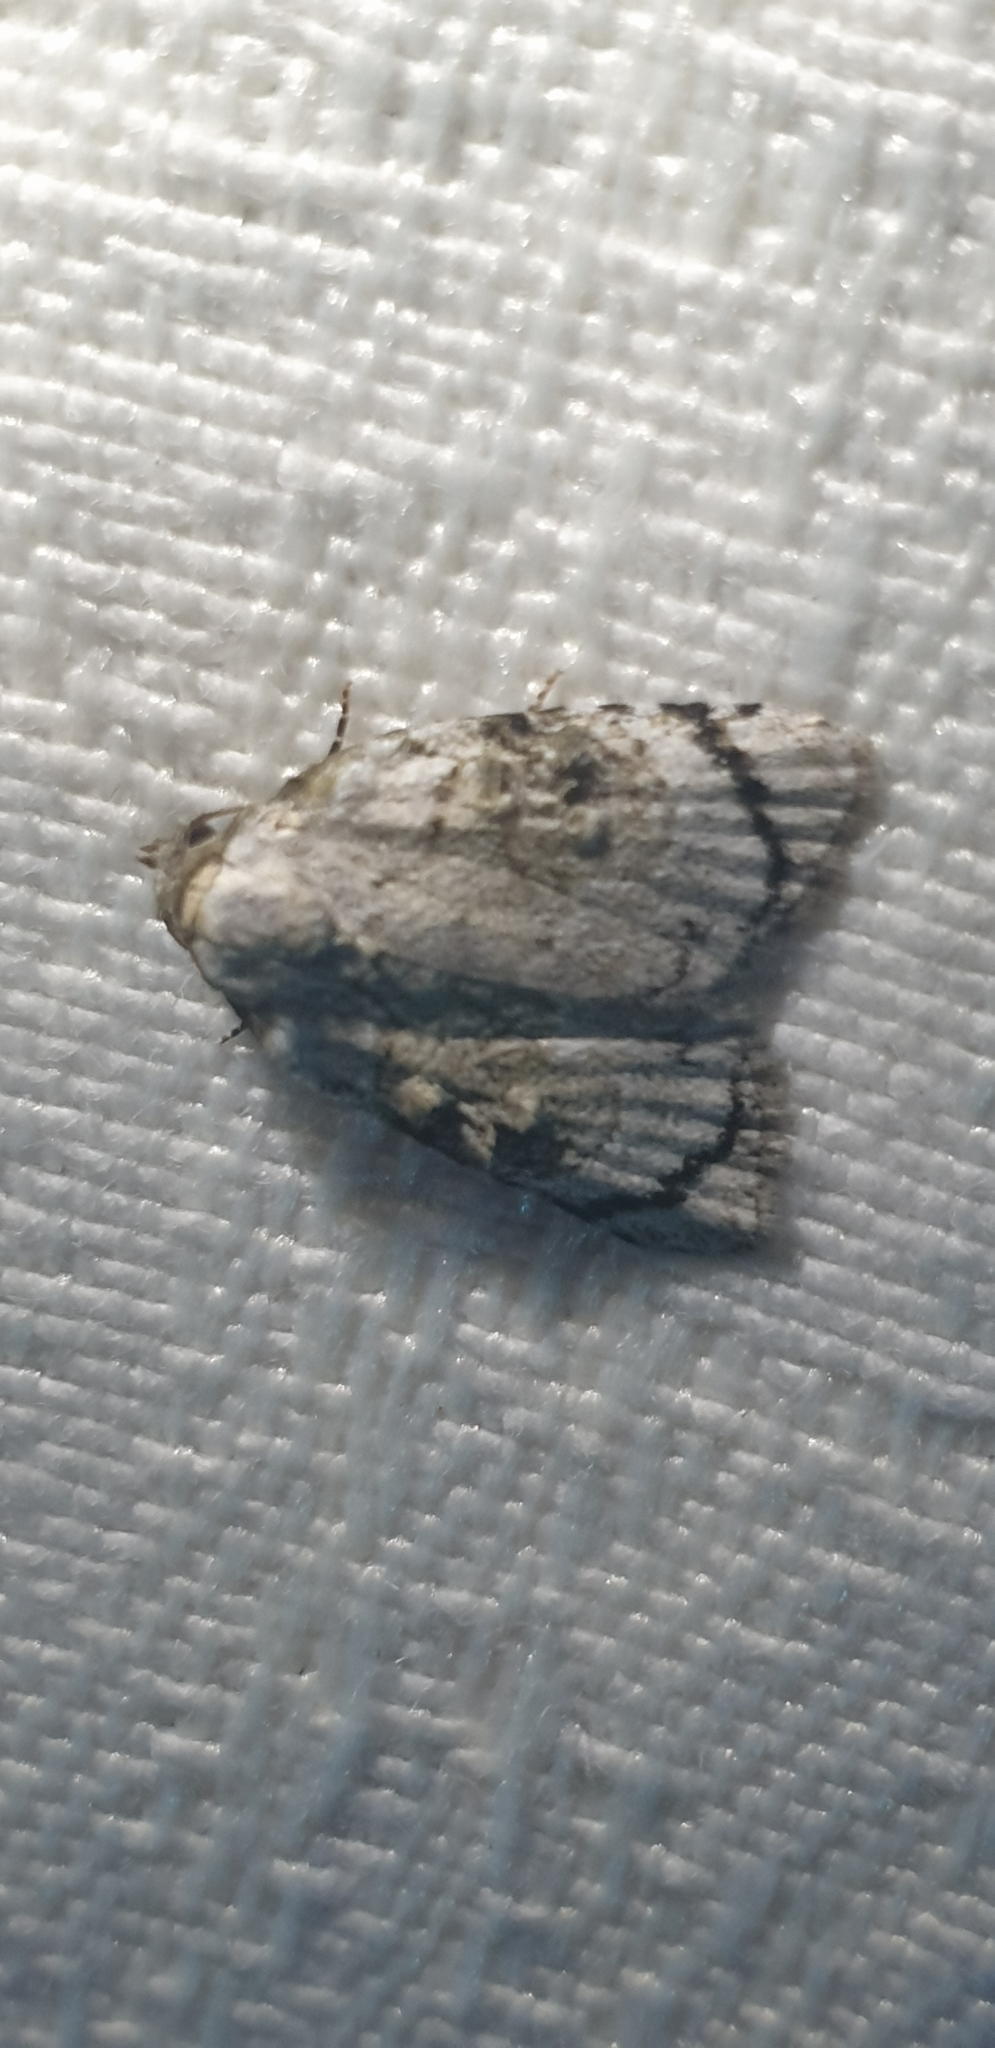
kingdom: Animalia
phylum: Arthropoda
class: Insecta
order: Lepidoptera
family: Nolidae
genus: Nola
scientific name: Nola zaplethes
